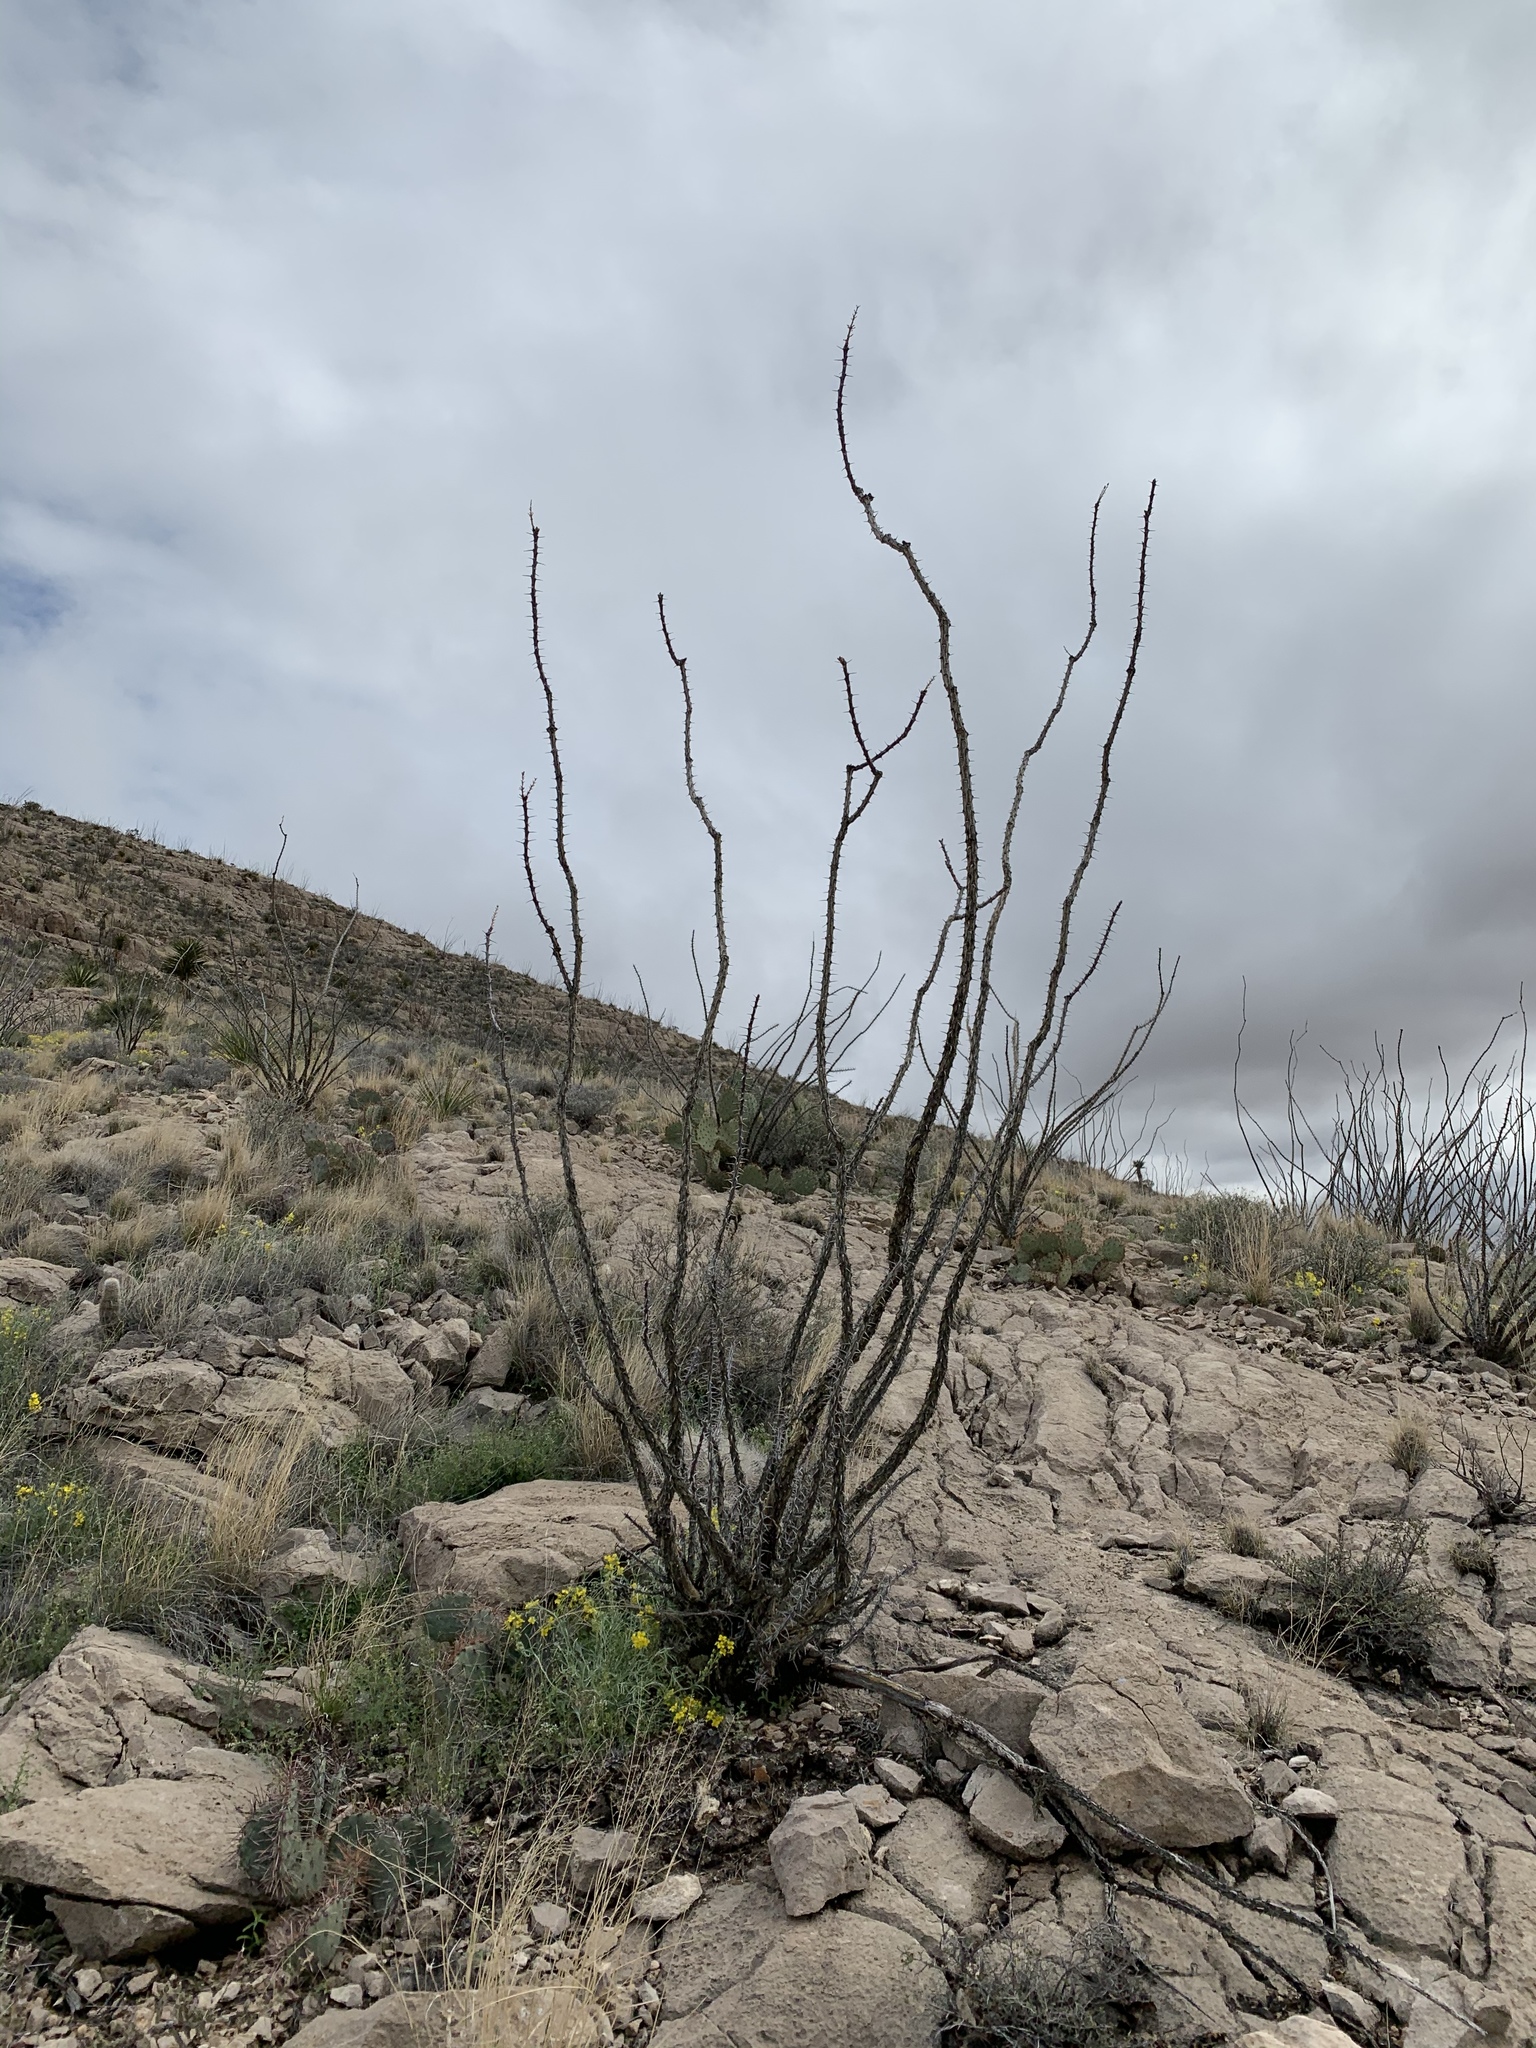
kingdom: Plantae
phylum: Tracheophyta
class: Magnoliopsida
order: Ericales
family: Fouquieriaceae
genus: Fouquieria
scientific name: Fouquieria splendens
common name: Vine-cactus
